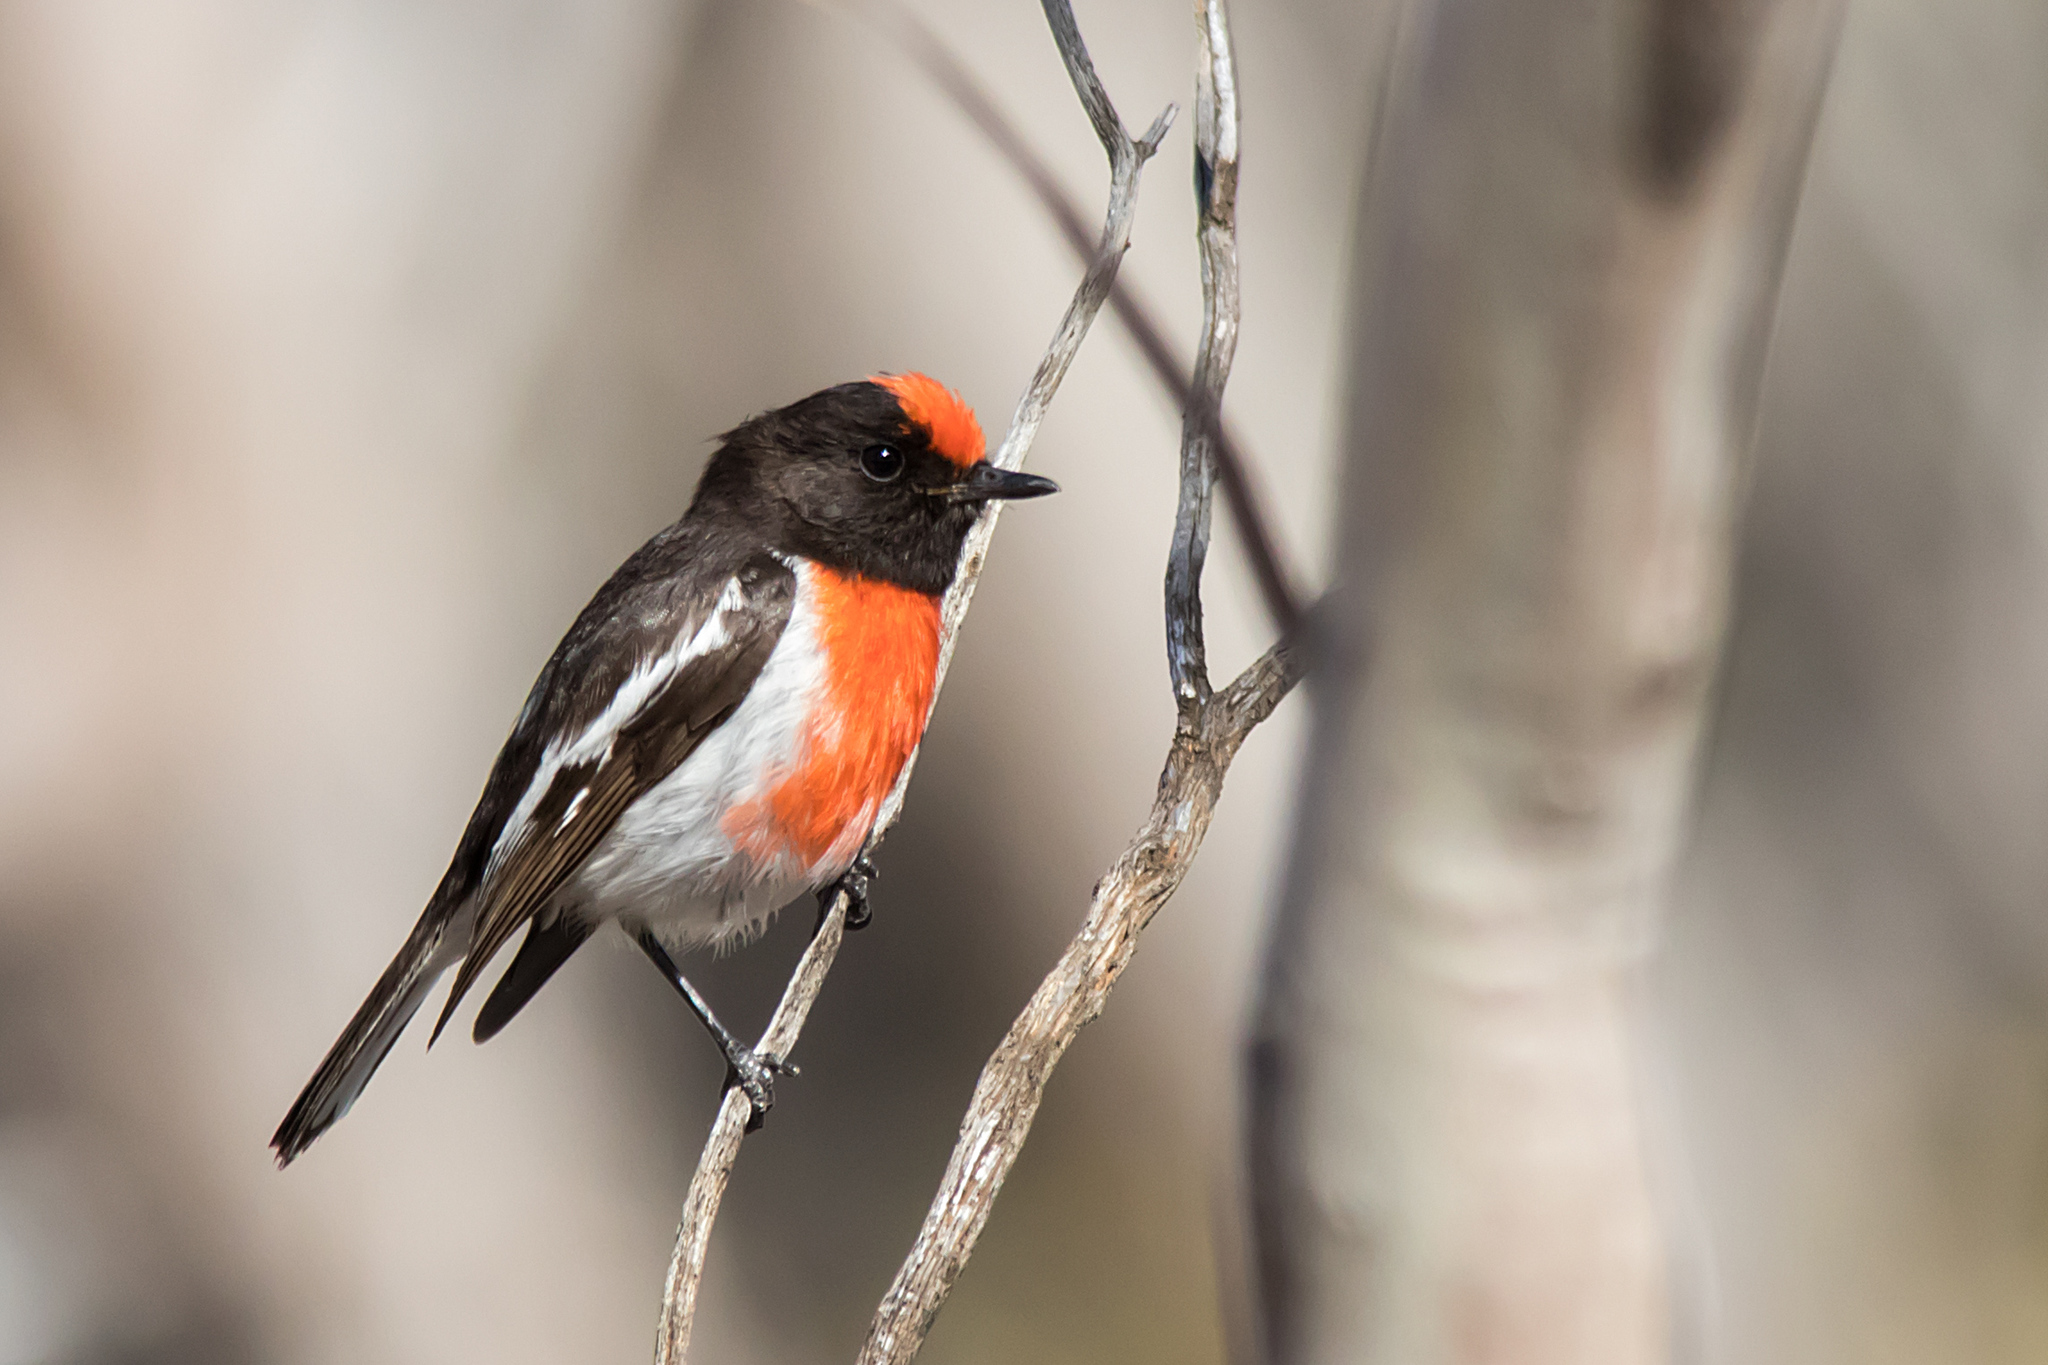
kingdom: Animalia
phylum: Chordata
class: Aves
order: Passeriformes
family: Petroicidae
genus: Petroica
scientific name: Petroica goodenovii
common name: Red-capped robin
